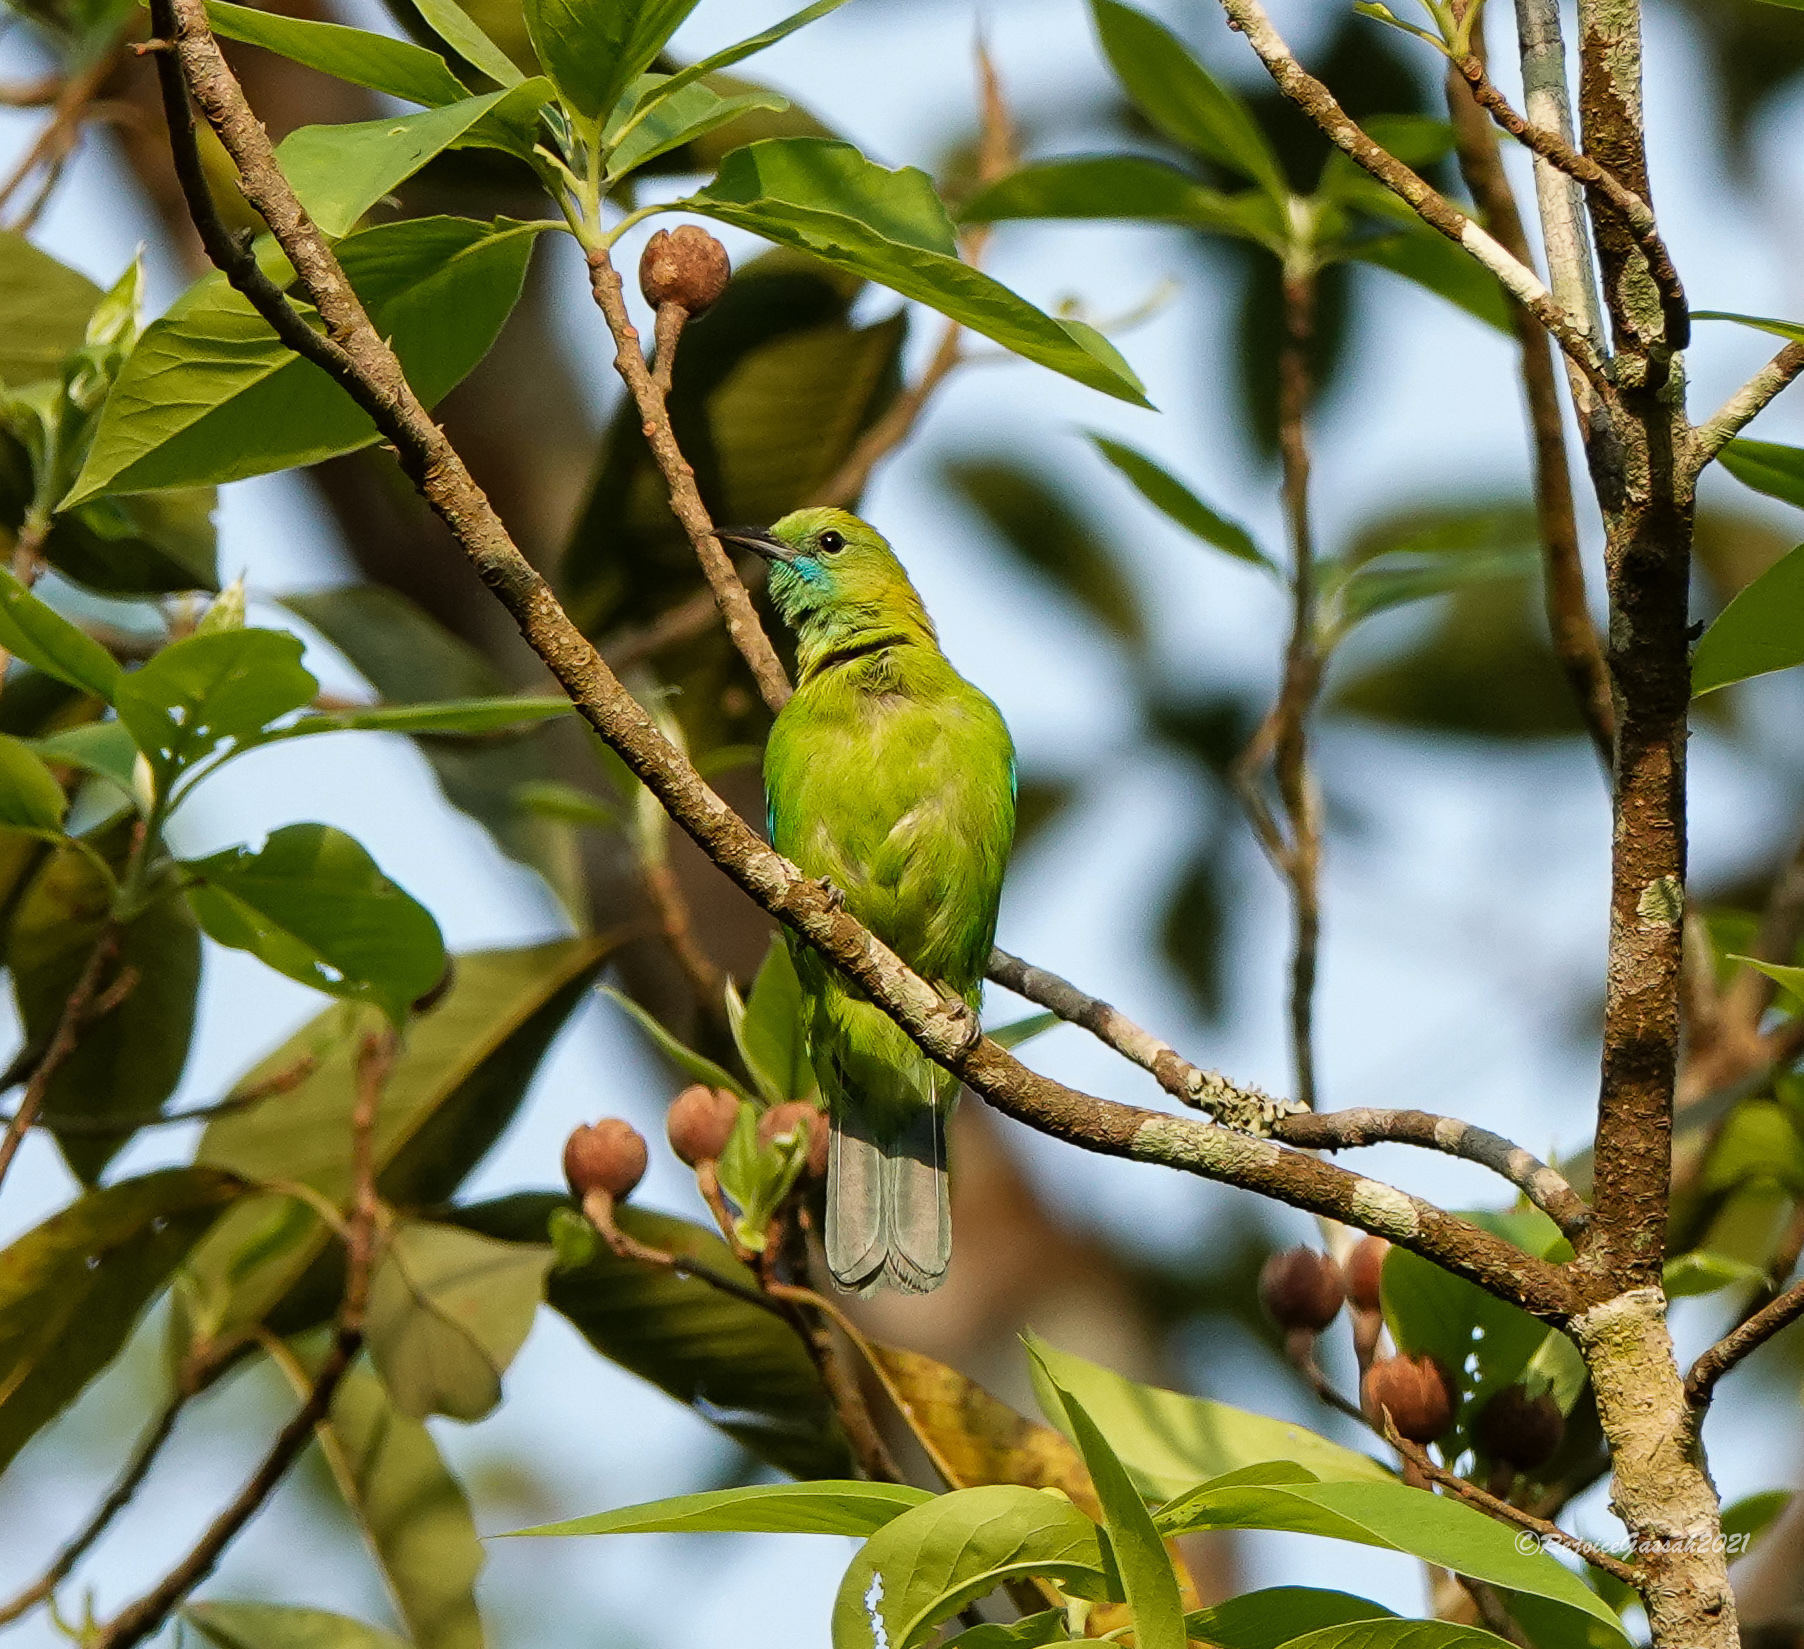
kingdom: Animalia
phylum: Chordata
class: Aves
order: Passeriformes
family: Chloropseidae
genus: Chloropsis
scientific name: Chloropsis jerdoni
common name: Jerdon's leafbird
